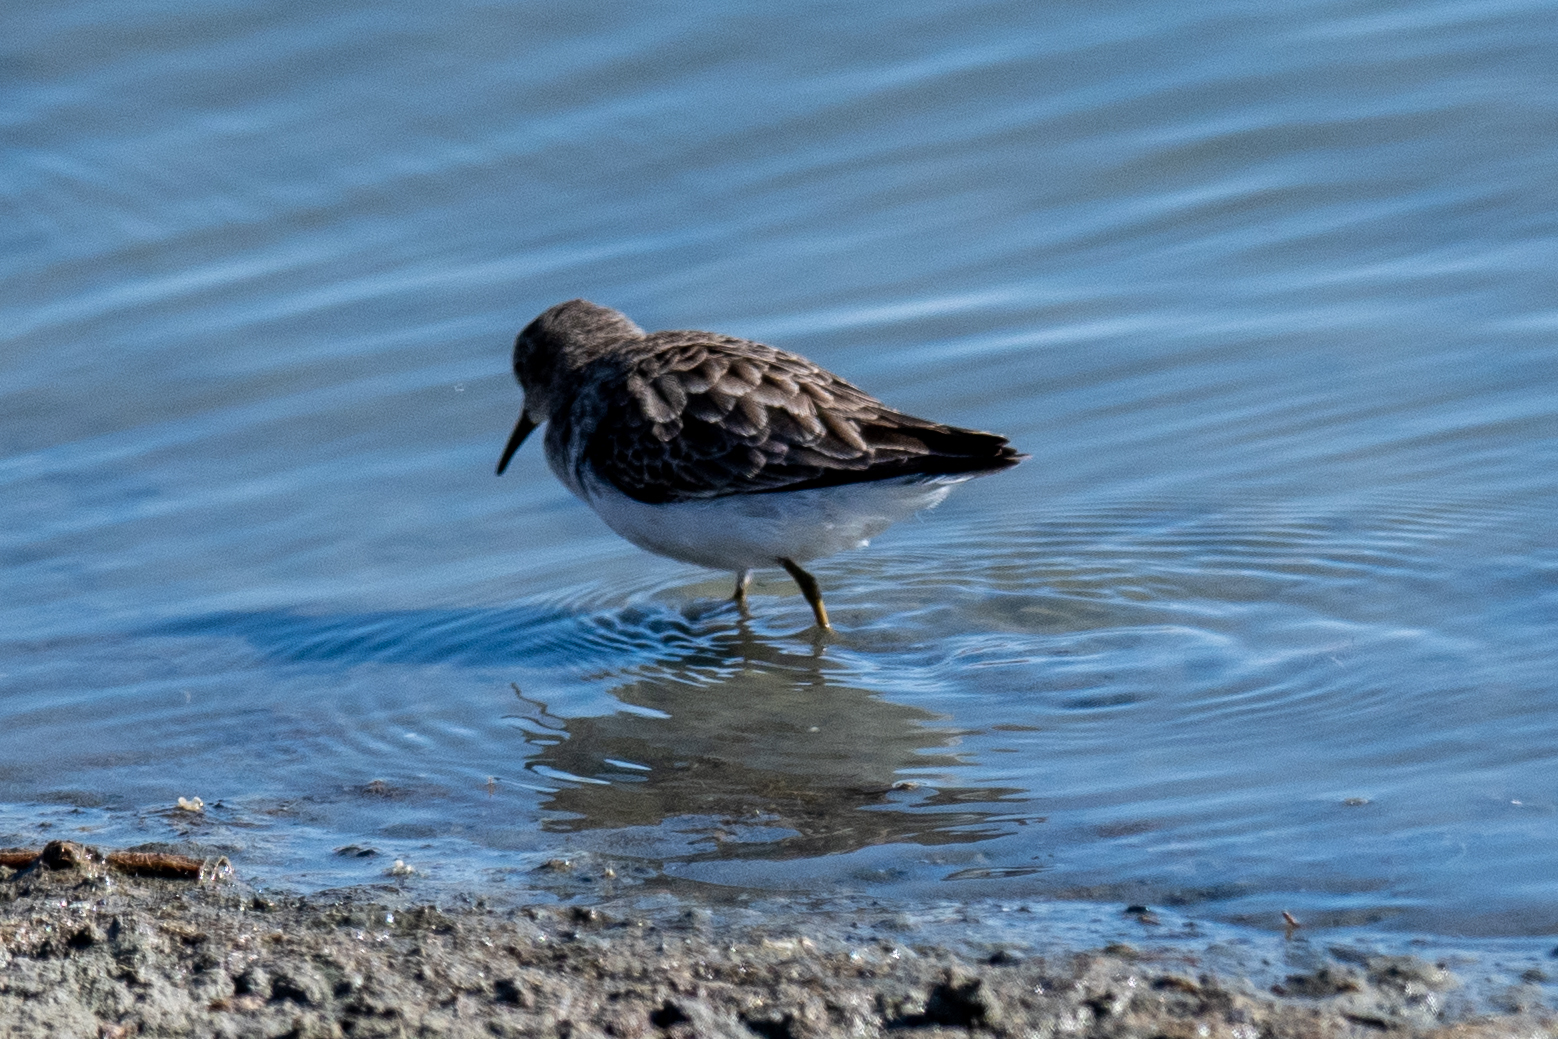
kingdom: Animalia
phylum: Chordata
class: Aves
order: Charadriiformes
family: Scolopacidae
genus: Calidris
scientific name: Calidris minutilla
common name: Least sandpiper
